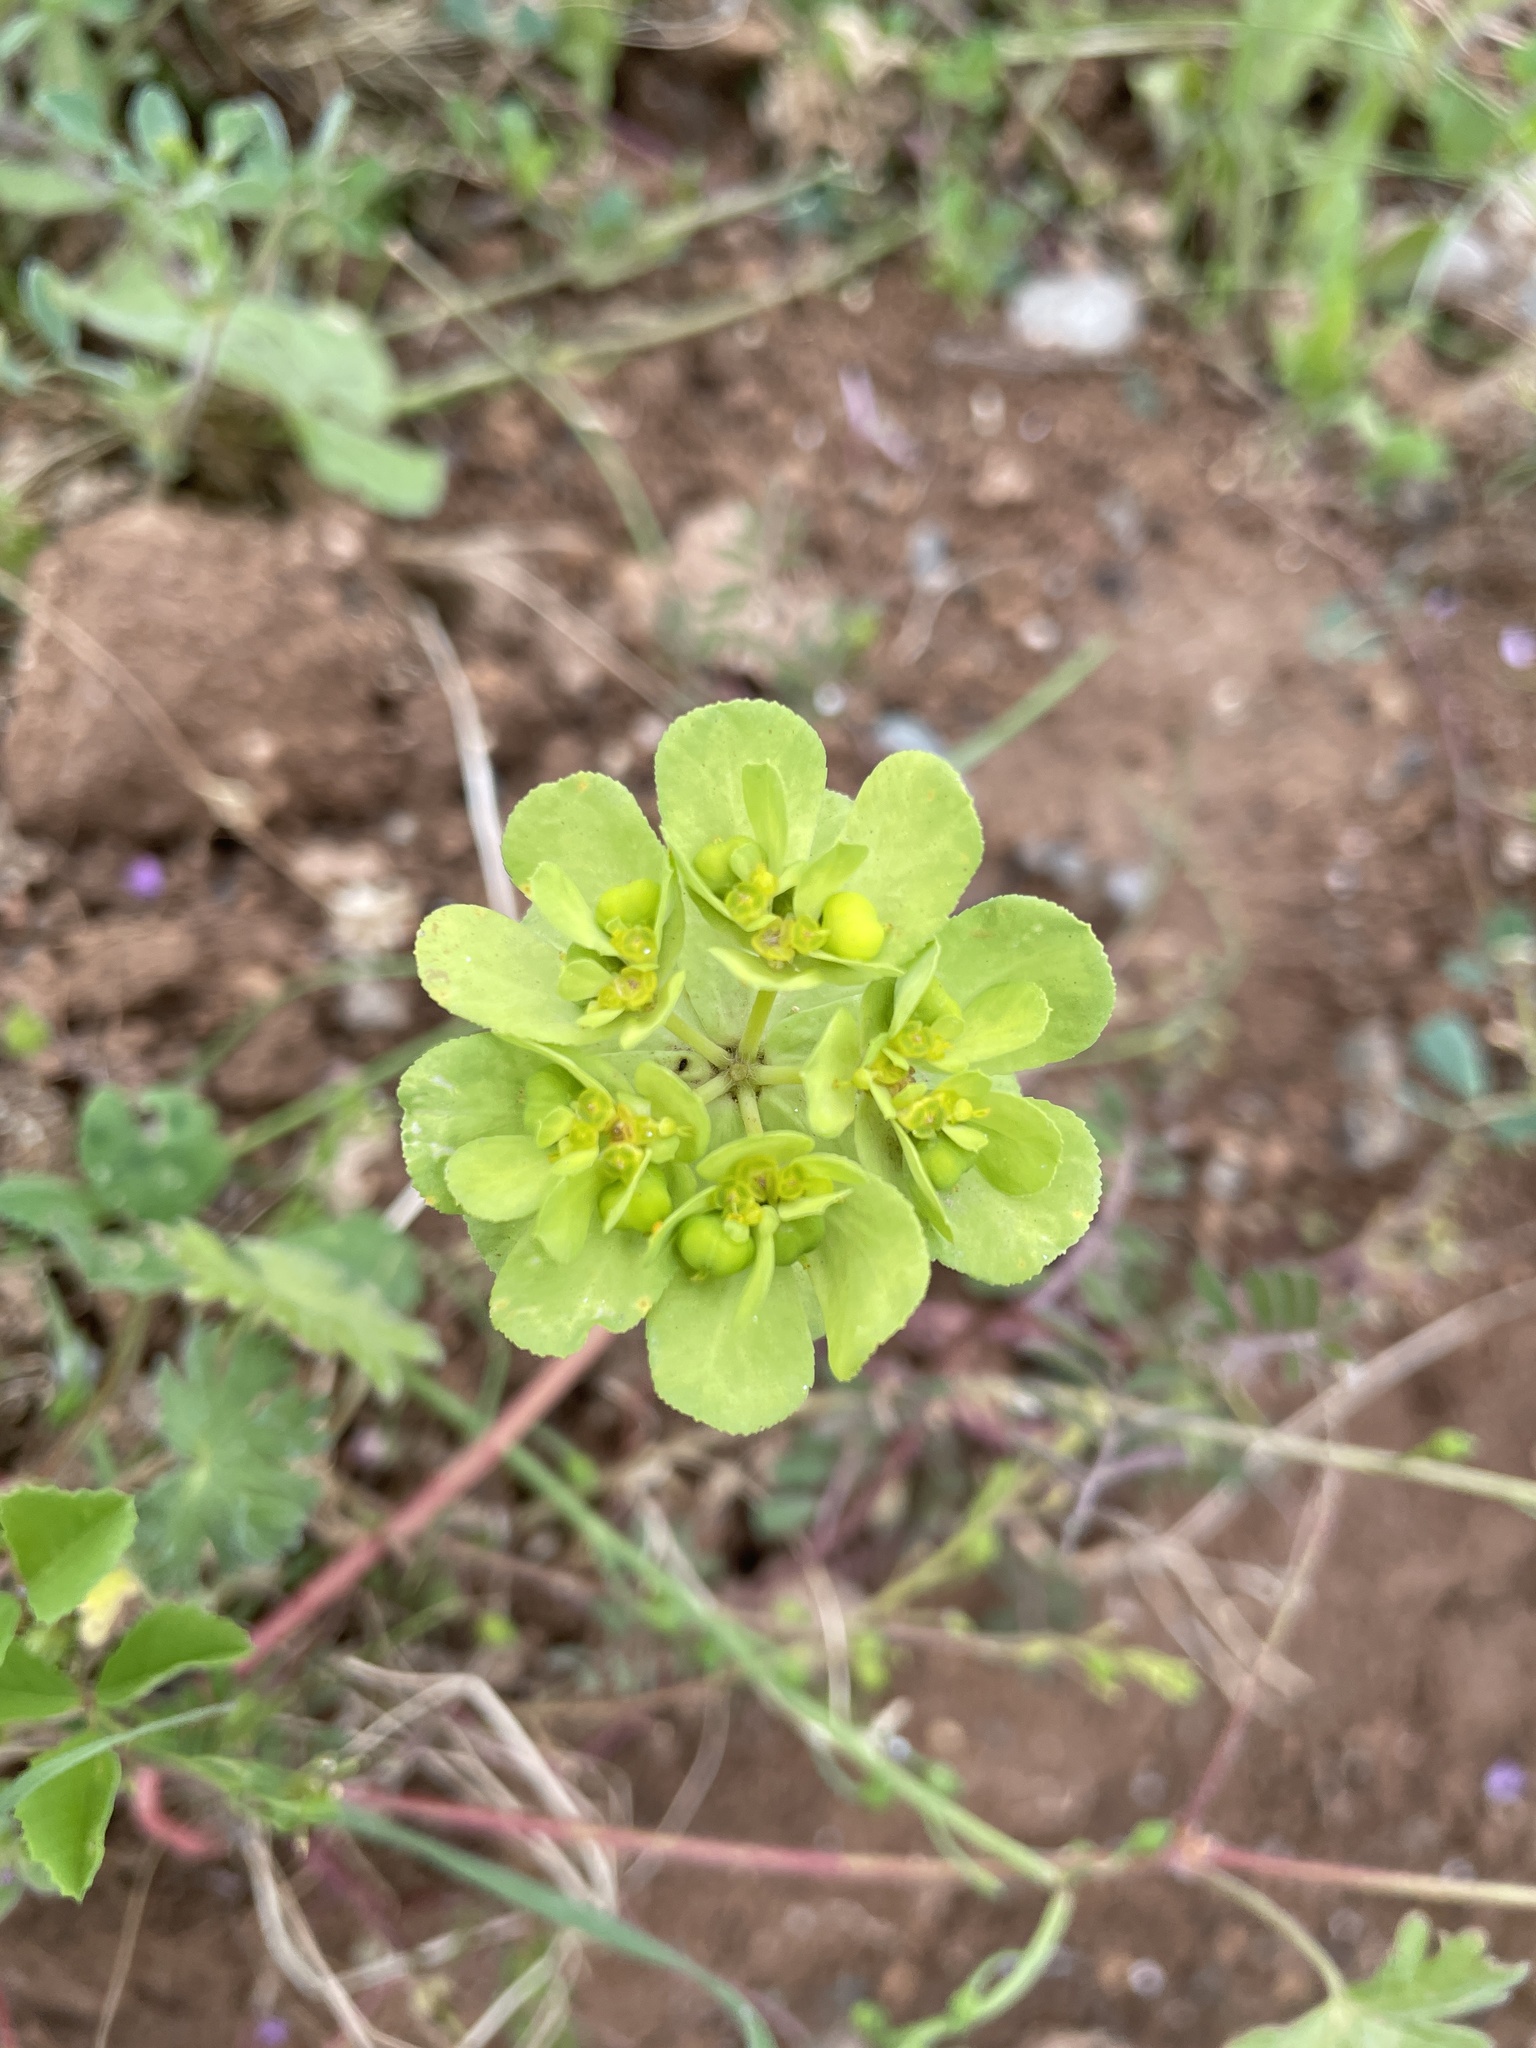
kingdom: Plantae
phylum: Tracheophyta
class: Magnoliopsida
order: Malpighiales
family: Euphorbiaceae
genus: Euphorbia
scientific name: Euphorbia helioscopia
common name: Sun spurge
